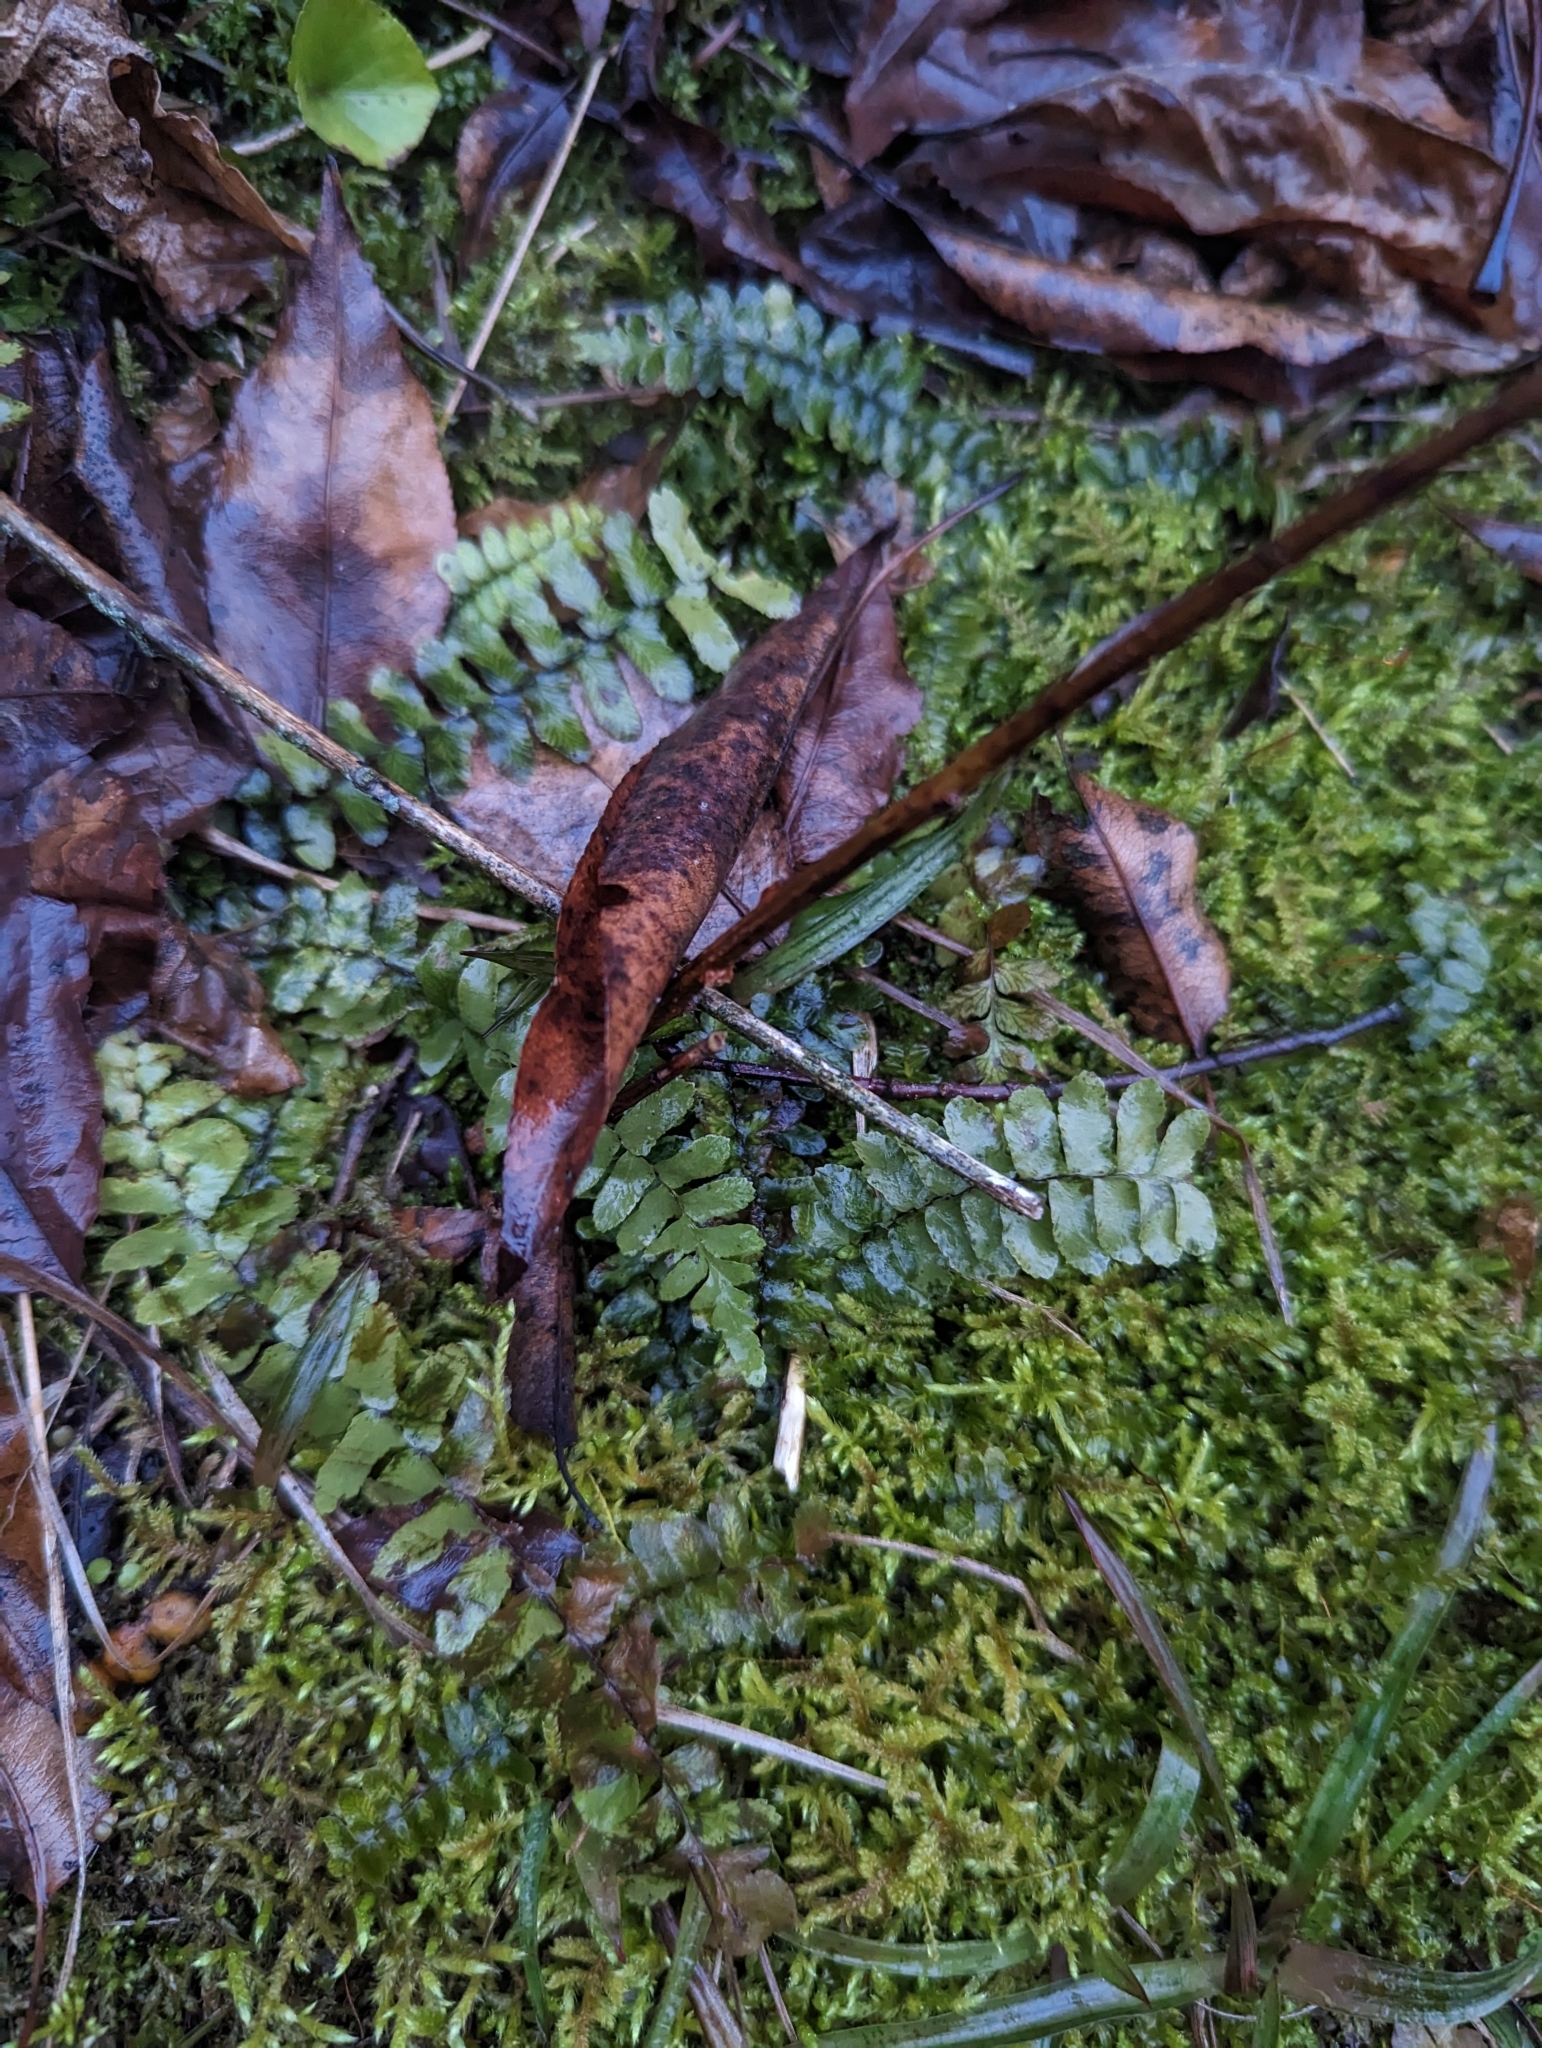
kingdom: Plantae
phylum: Tracheophyta
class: Polypodiopsida
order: Polypodiales
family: Aspleniaceae
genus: Asplenium
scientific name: Asplenium platyneuron
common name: Ebony spleenwort
